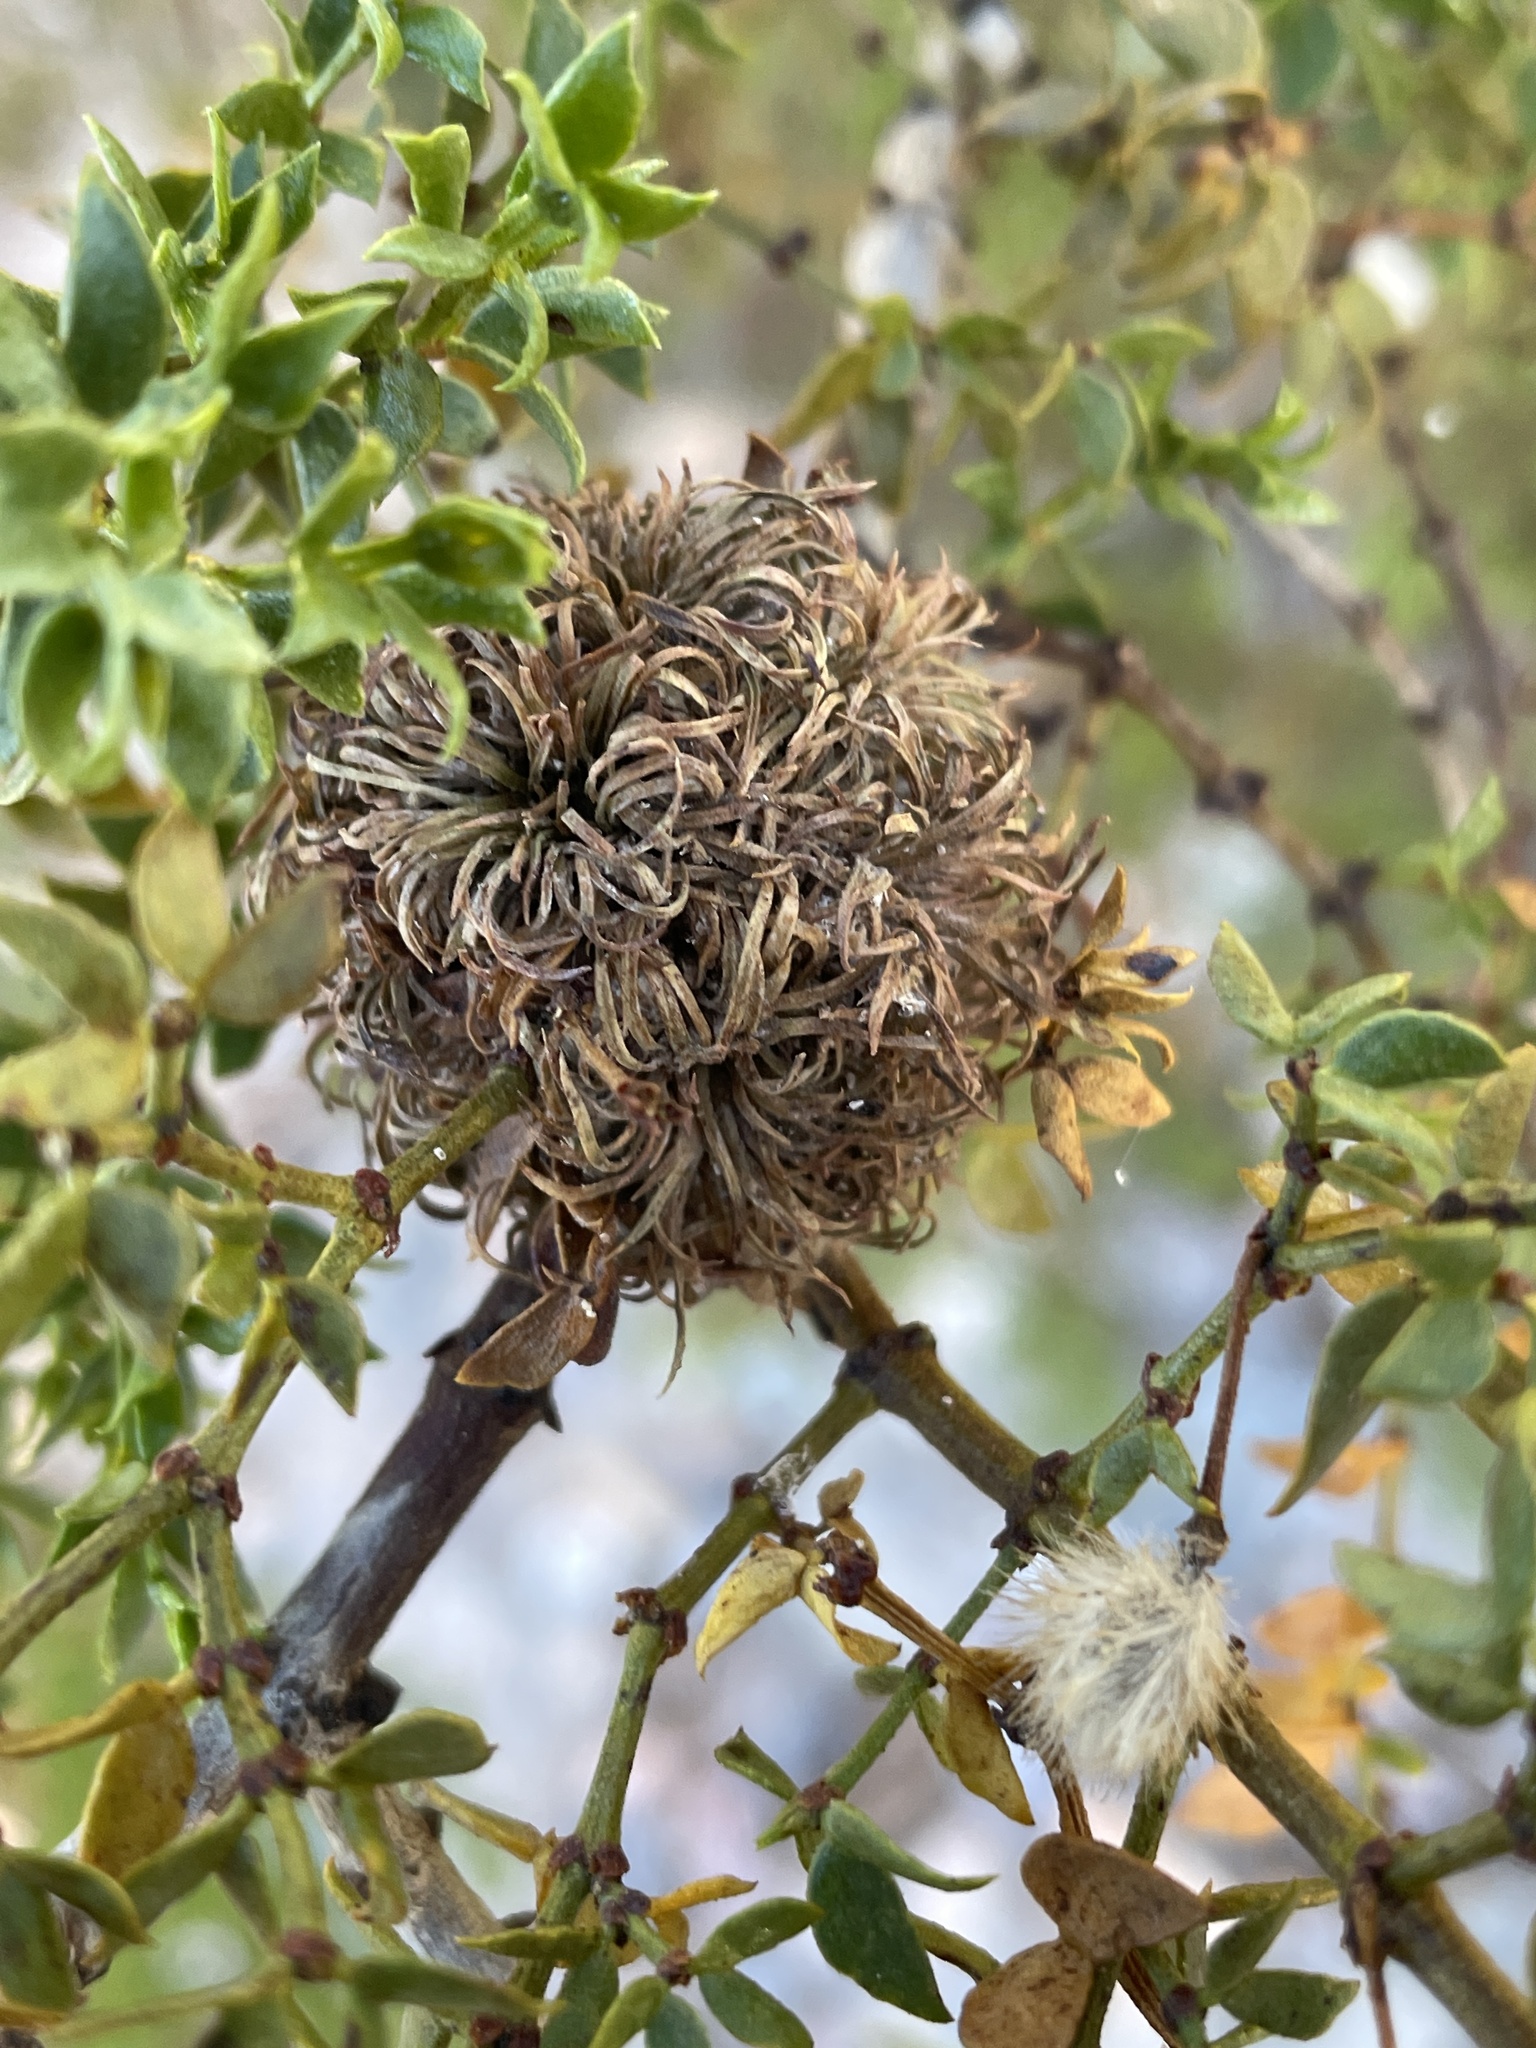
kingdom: Animalia
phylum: Arthropoda
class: Insecta
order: Diptera
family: Cecidomyiidae
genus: Asphondylia
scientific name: Asphondylia auripila
